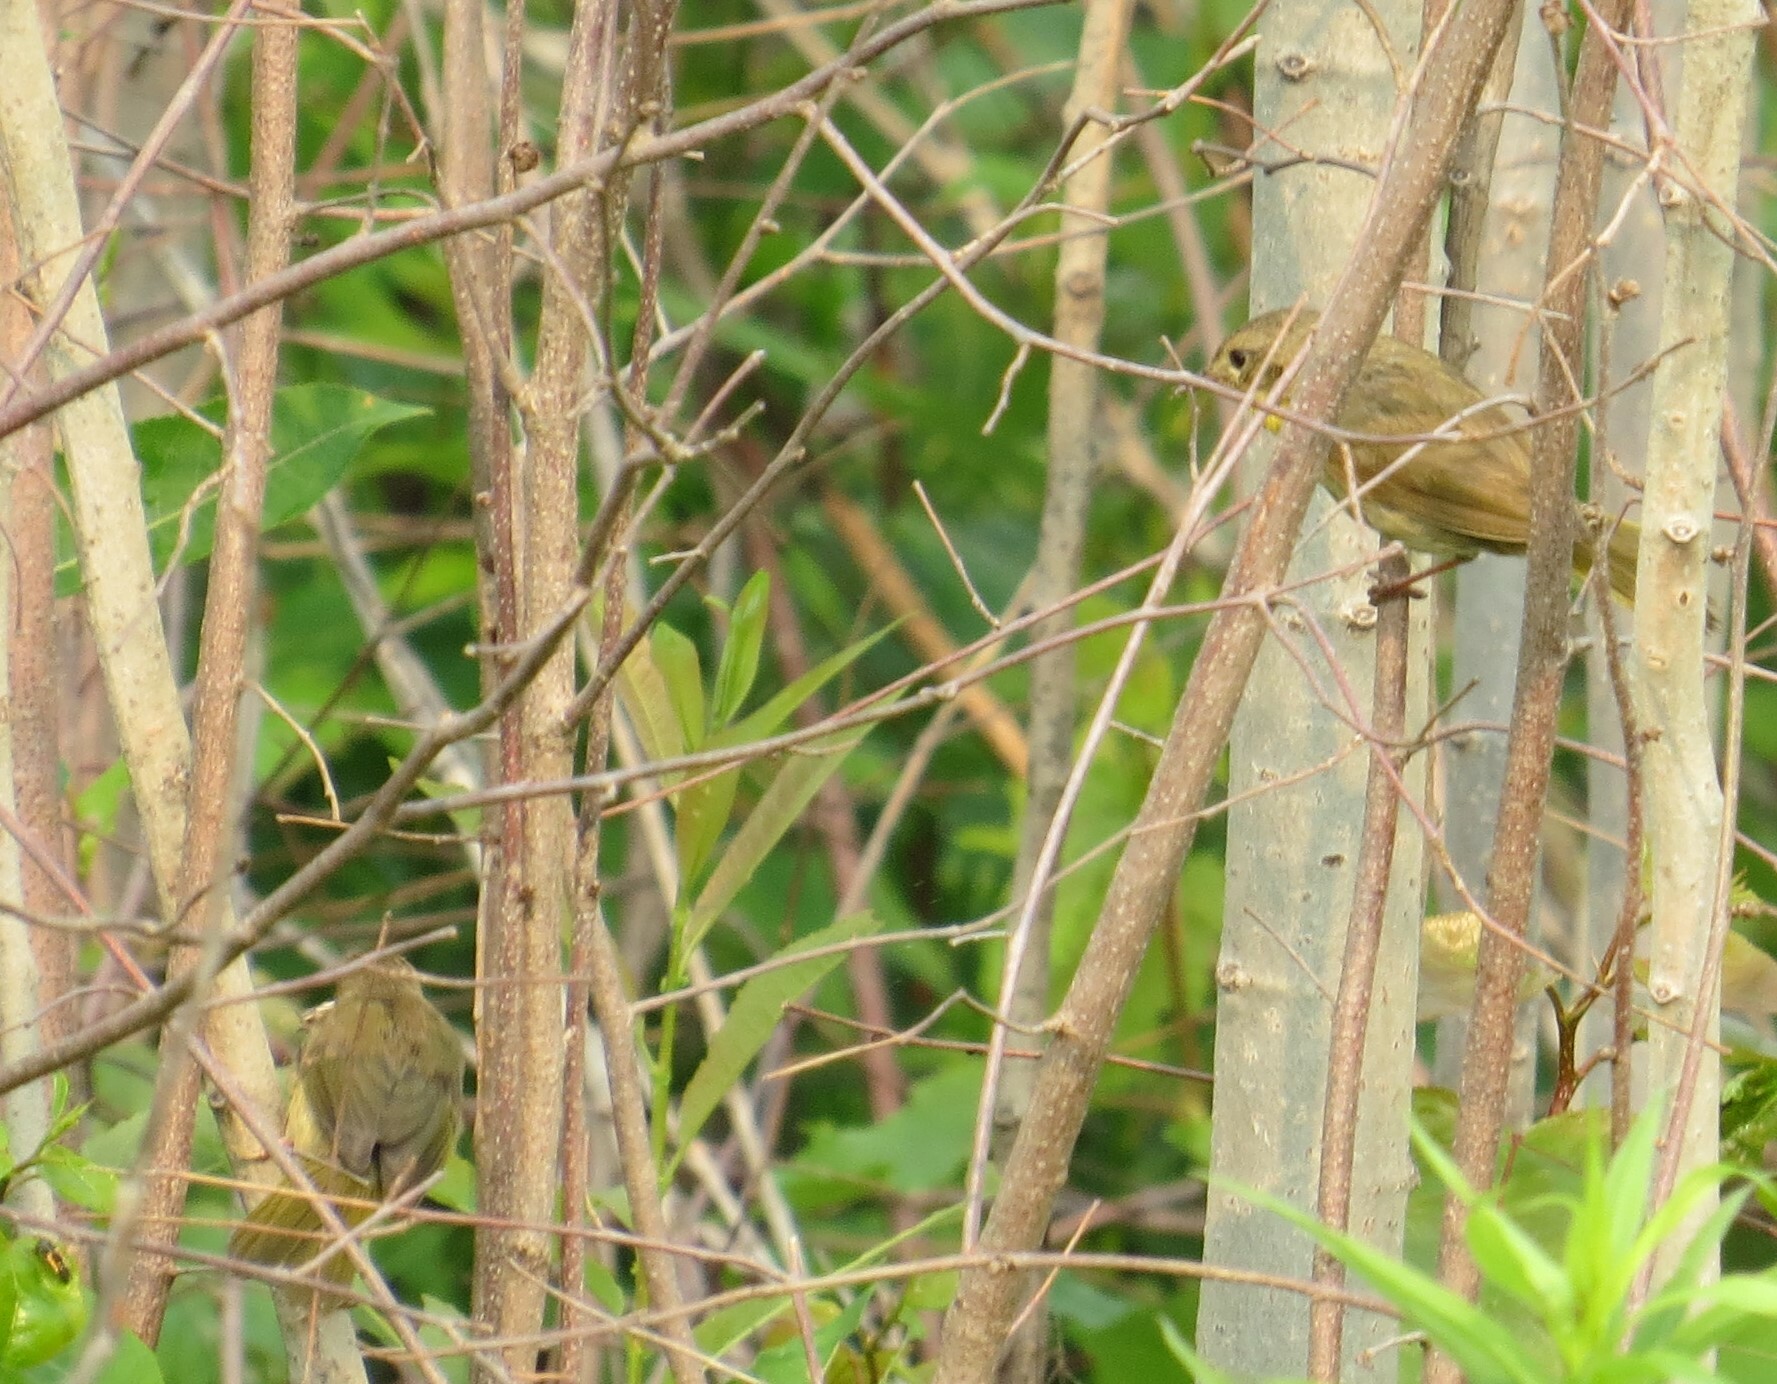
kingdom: Animalia
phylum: Chordata
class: Aves
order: Passeriformes
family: Parulidae
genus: Geothlypis
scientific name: Geothlypis trichas
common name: Common yellowthroat
